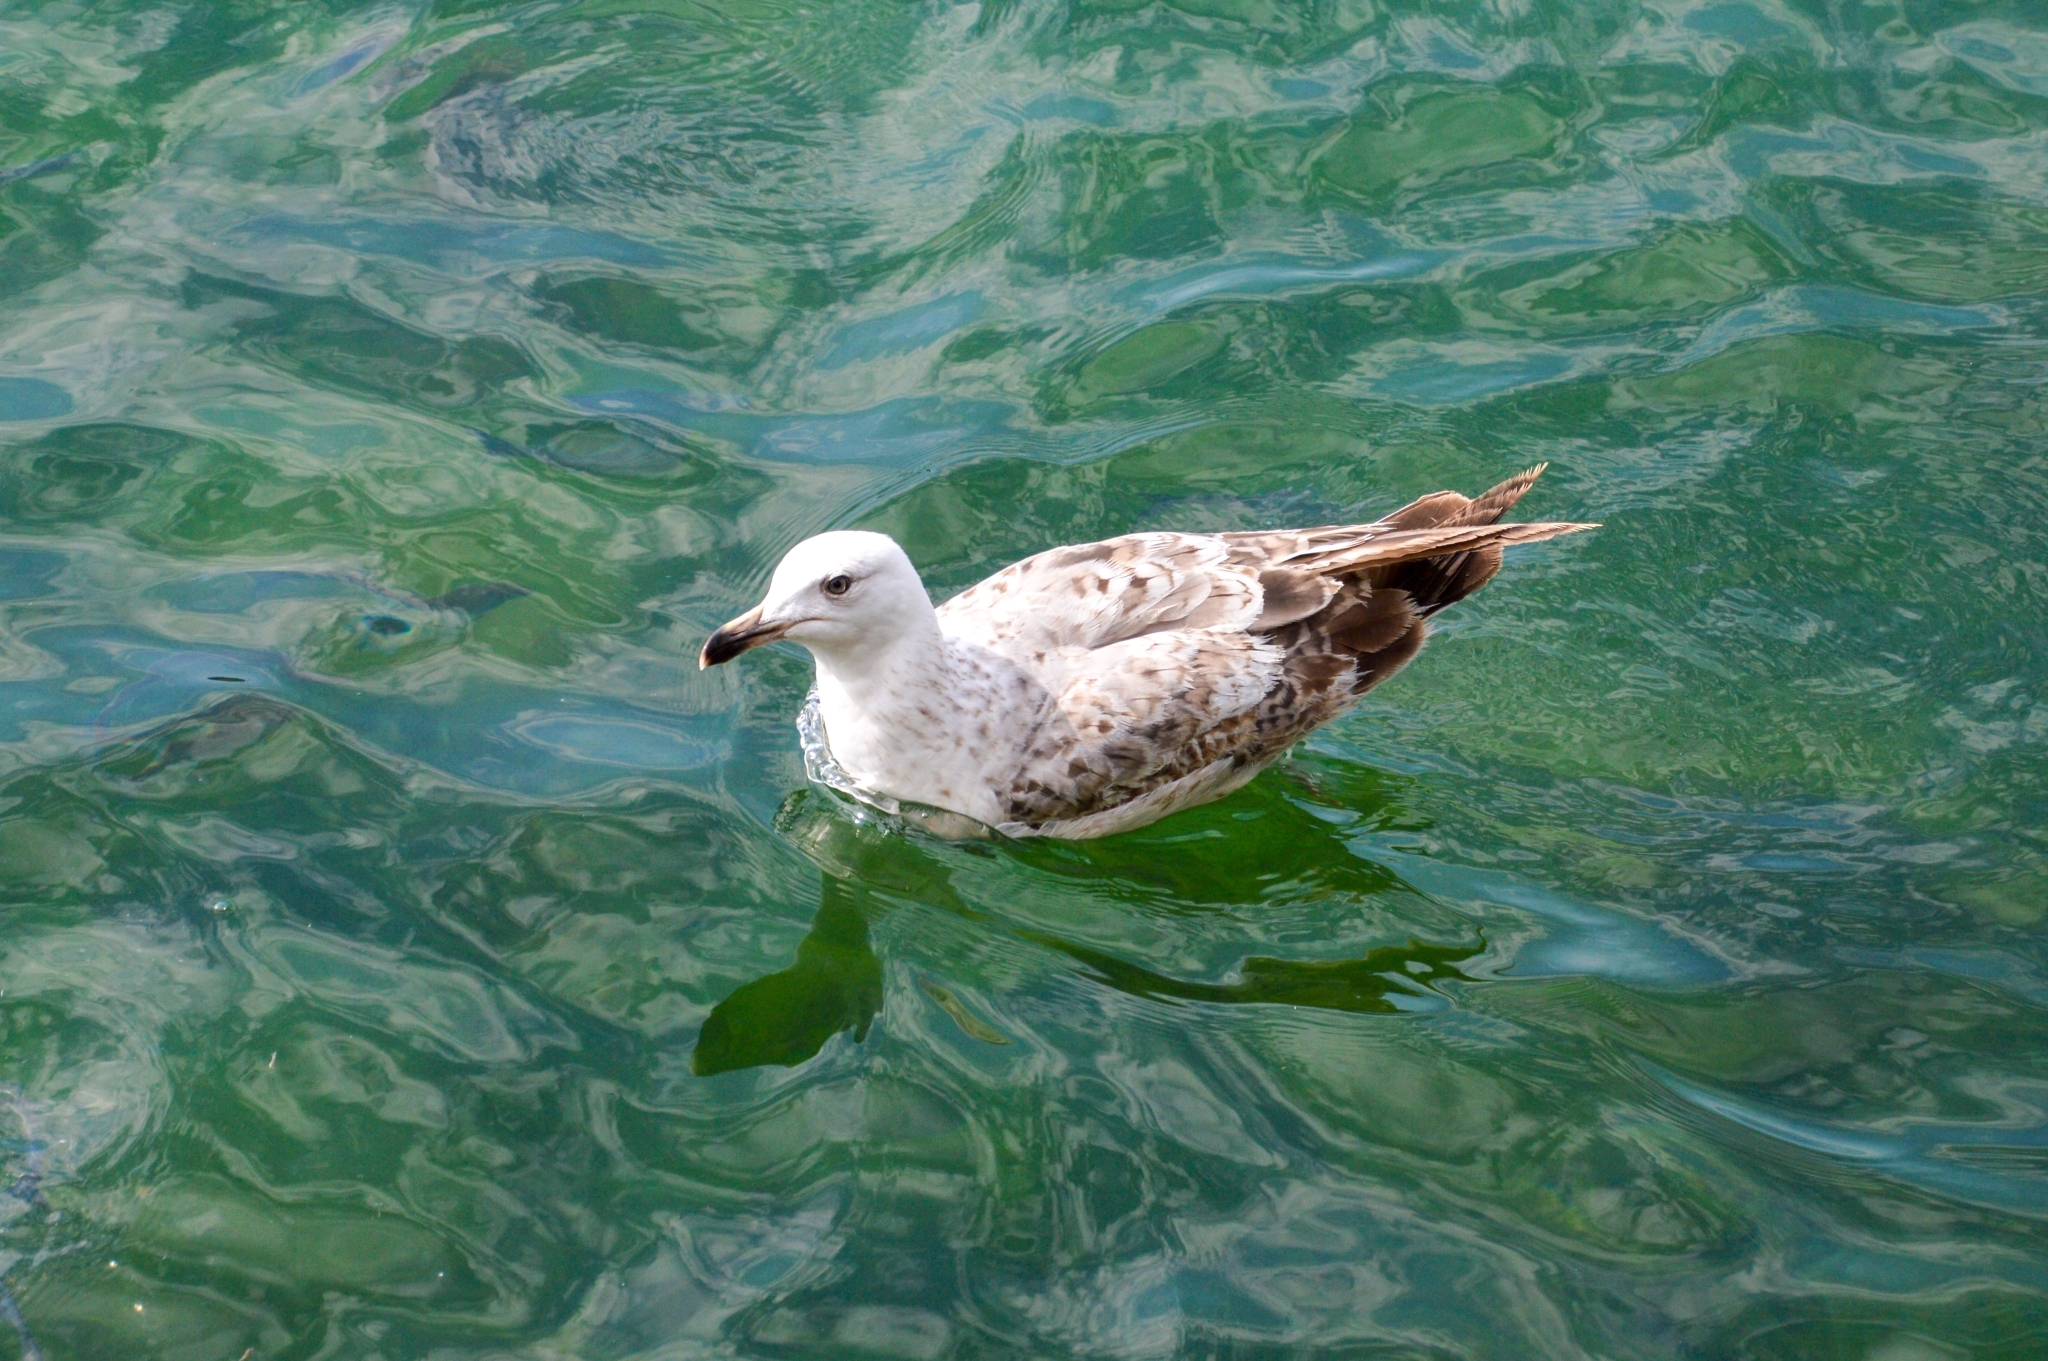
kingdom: Animalia
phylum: Chordata
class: Aves
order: Charadriiformes
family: Laridae
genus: Larus
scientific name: Larus michahellis
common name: Yellow-legged gull
